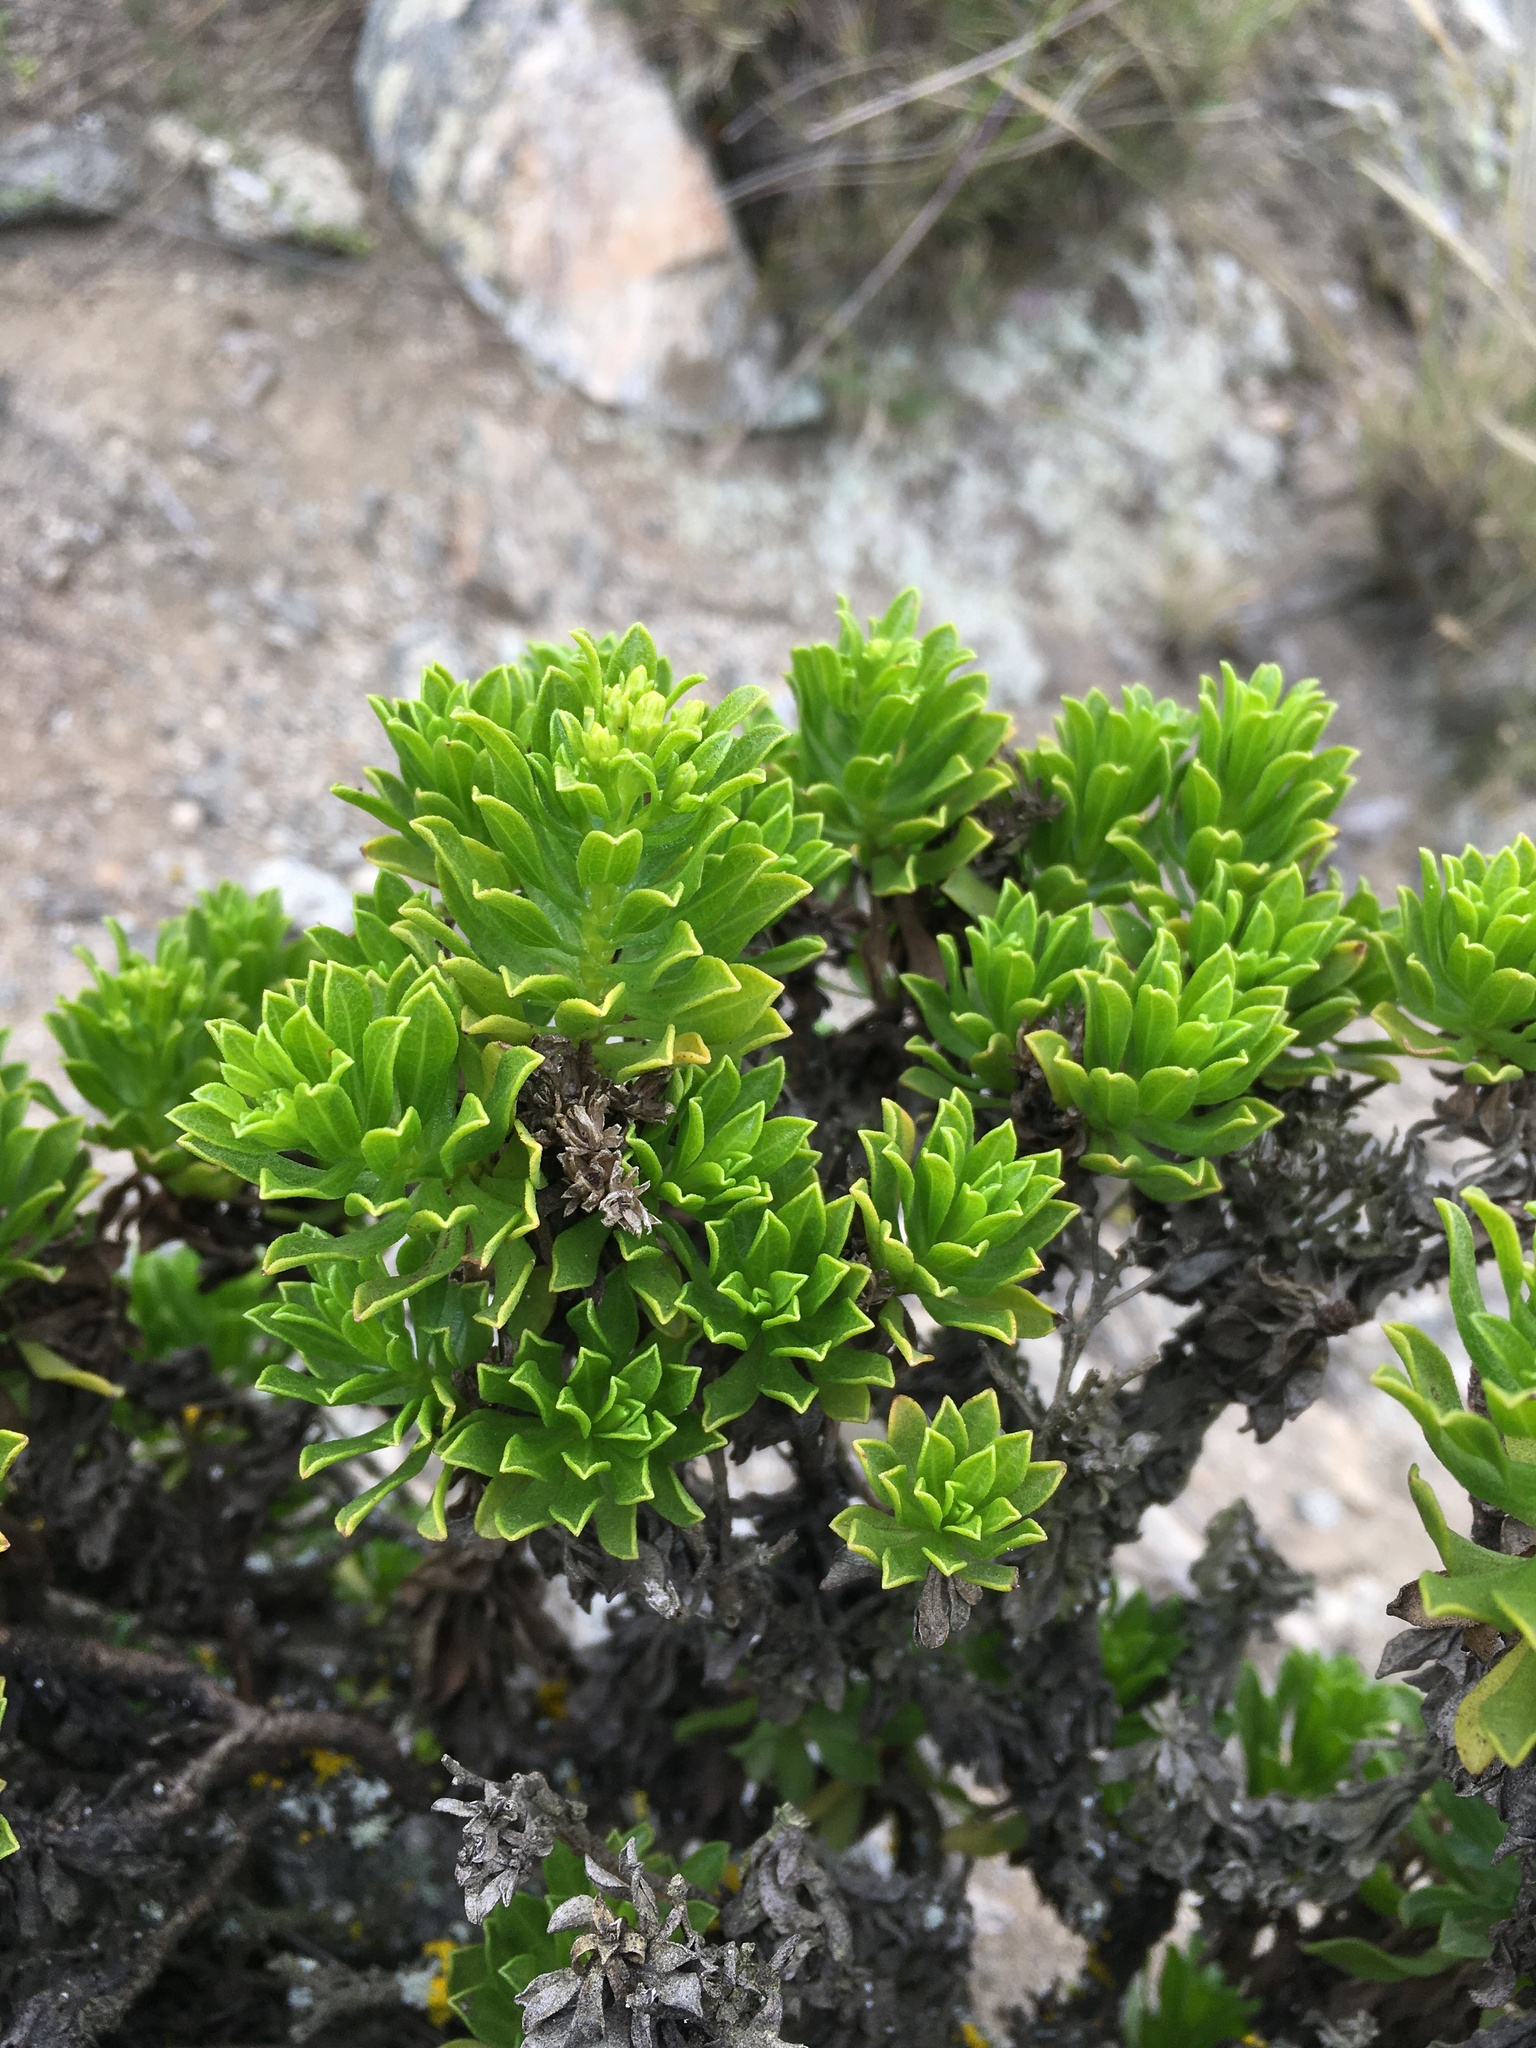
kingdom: Plantae
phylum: Tracheophyta
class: Magnoliopsida
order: Asterales
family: Asteraceae
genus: Gutierrezia
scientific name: Gutierrezia espinosae
